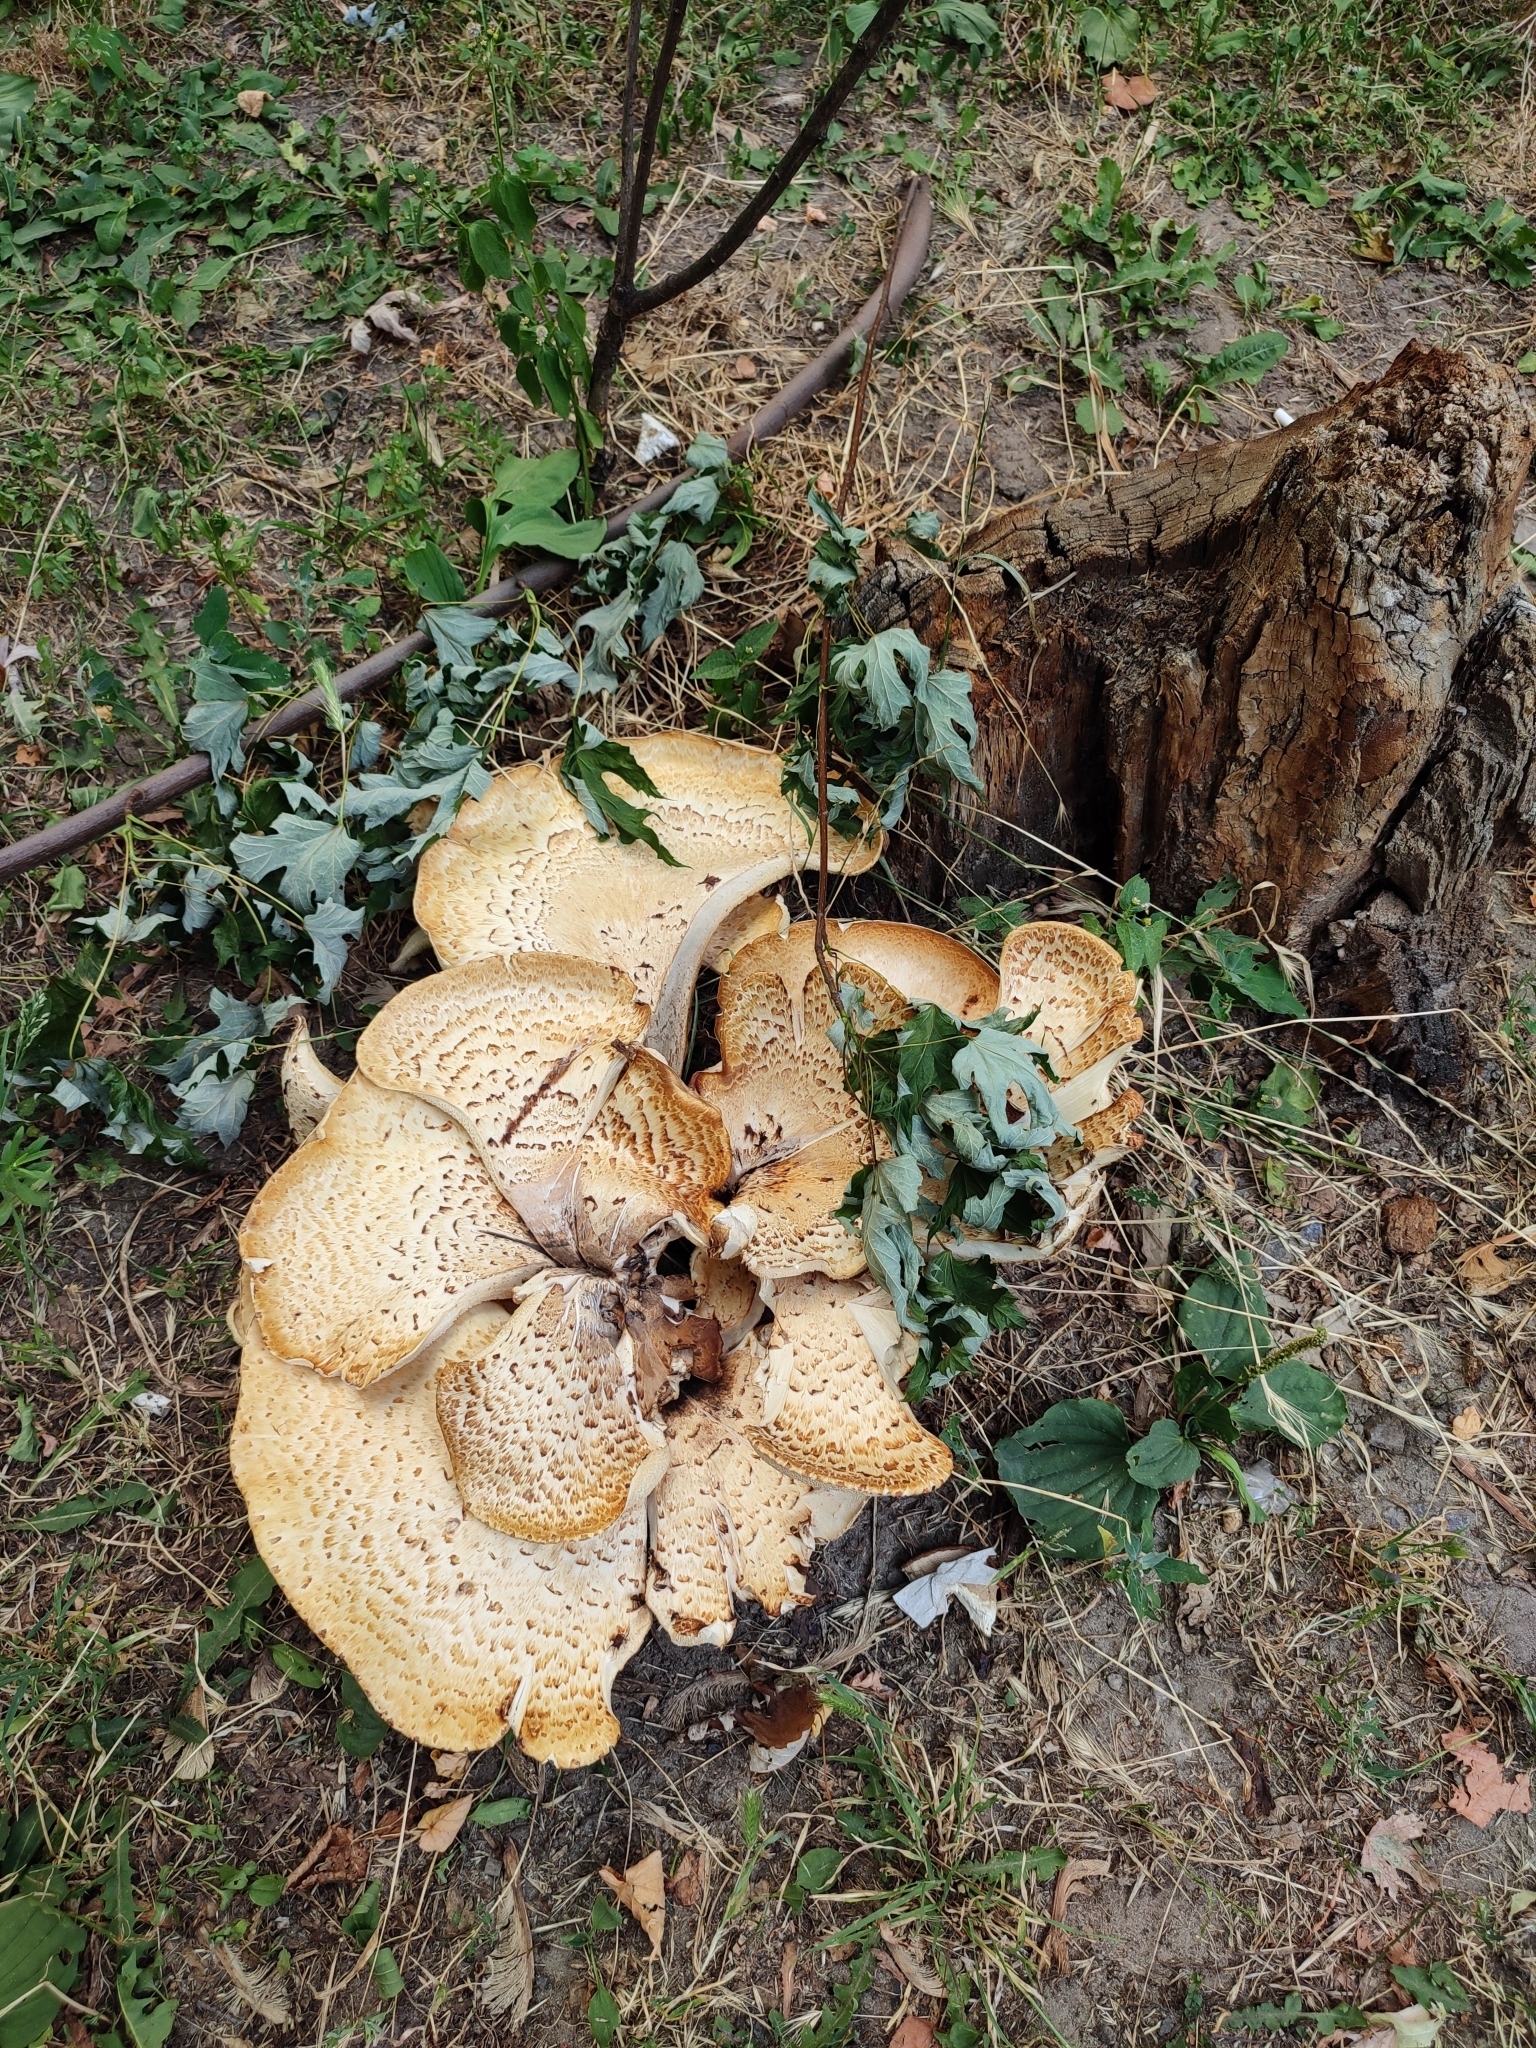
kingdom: Fungi
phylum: Basidiomycota
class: Agaricomycetes
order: Polyporales
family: Polyporaceae
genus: Cerioporus
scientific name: Cerioporus squamosus
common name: Dryad's saddle
